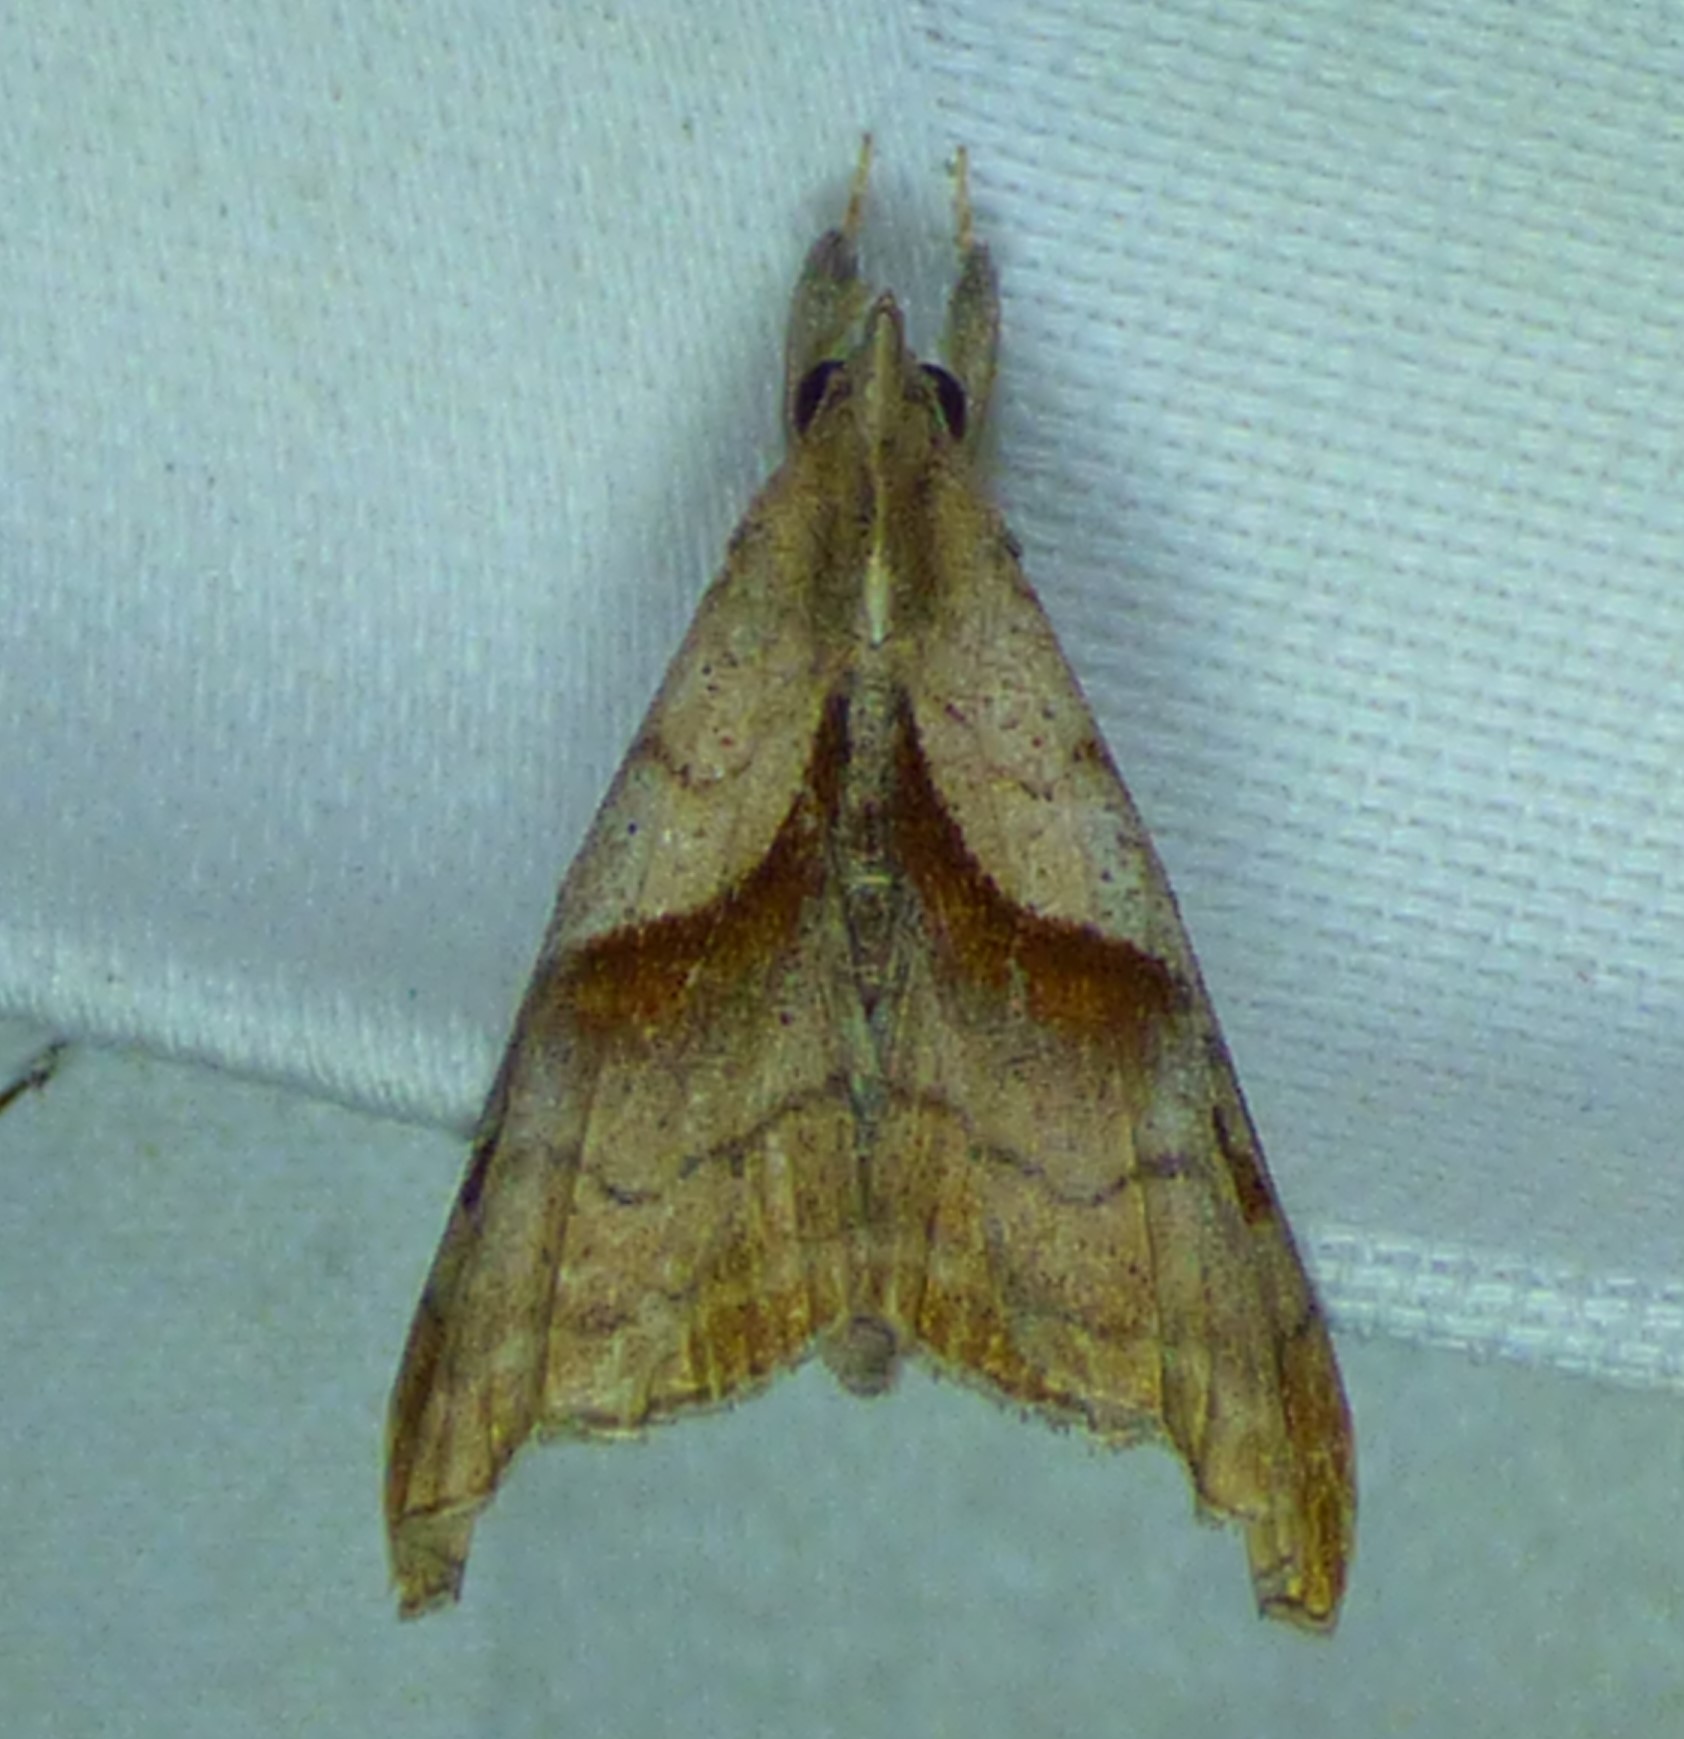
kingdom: Animalia
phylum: Arthropoda
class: Insecta
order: Lepidoptera
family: Erebidae
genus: Palthis
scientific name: Palthis angulalis
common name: Dark-spotted palthis moth
